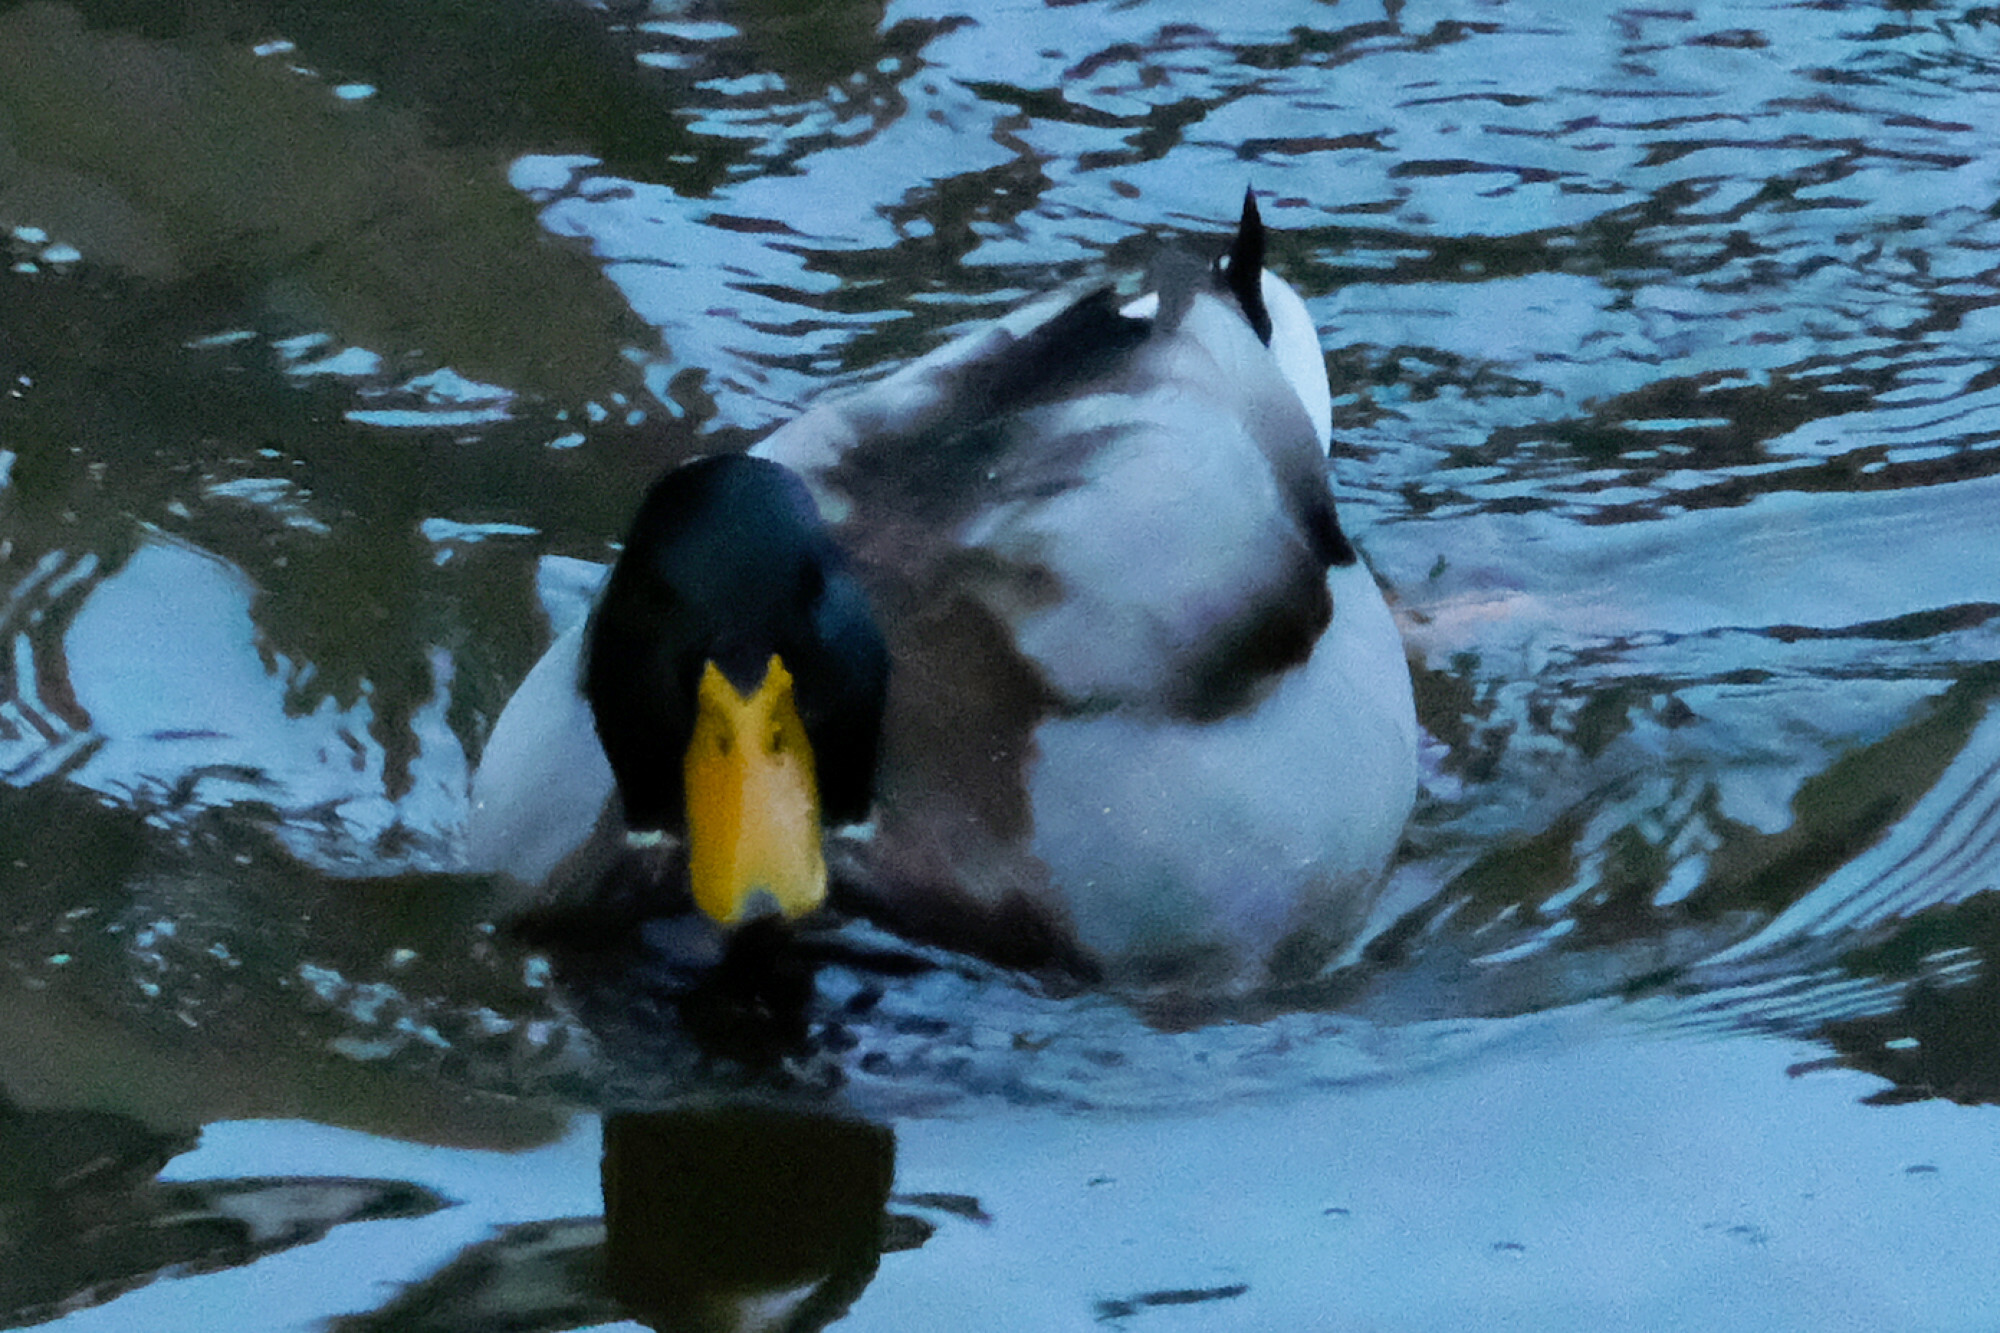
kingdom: Animalia
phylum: Chordata
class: Aves
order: Anseriformes
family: Anatidae
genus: Anas
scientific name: Anas platyrhynchos
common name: Mallard
